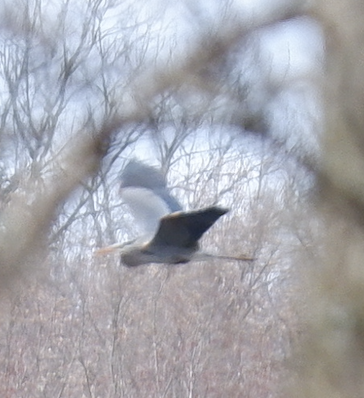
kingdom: Animalia
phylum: Chordata
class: Aves
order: Pelecaniformes
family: Ardeidae
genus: Ardea
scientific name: Ardea herodias
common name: Great blue heron
